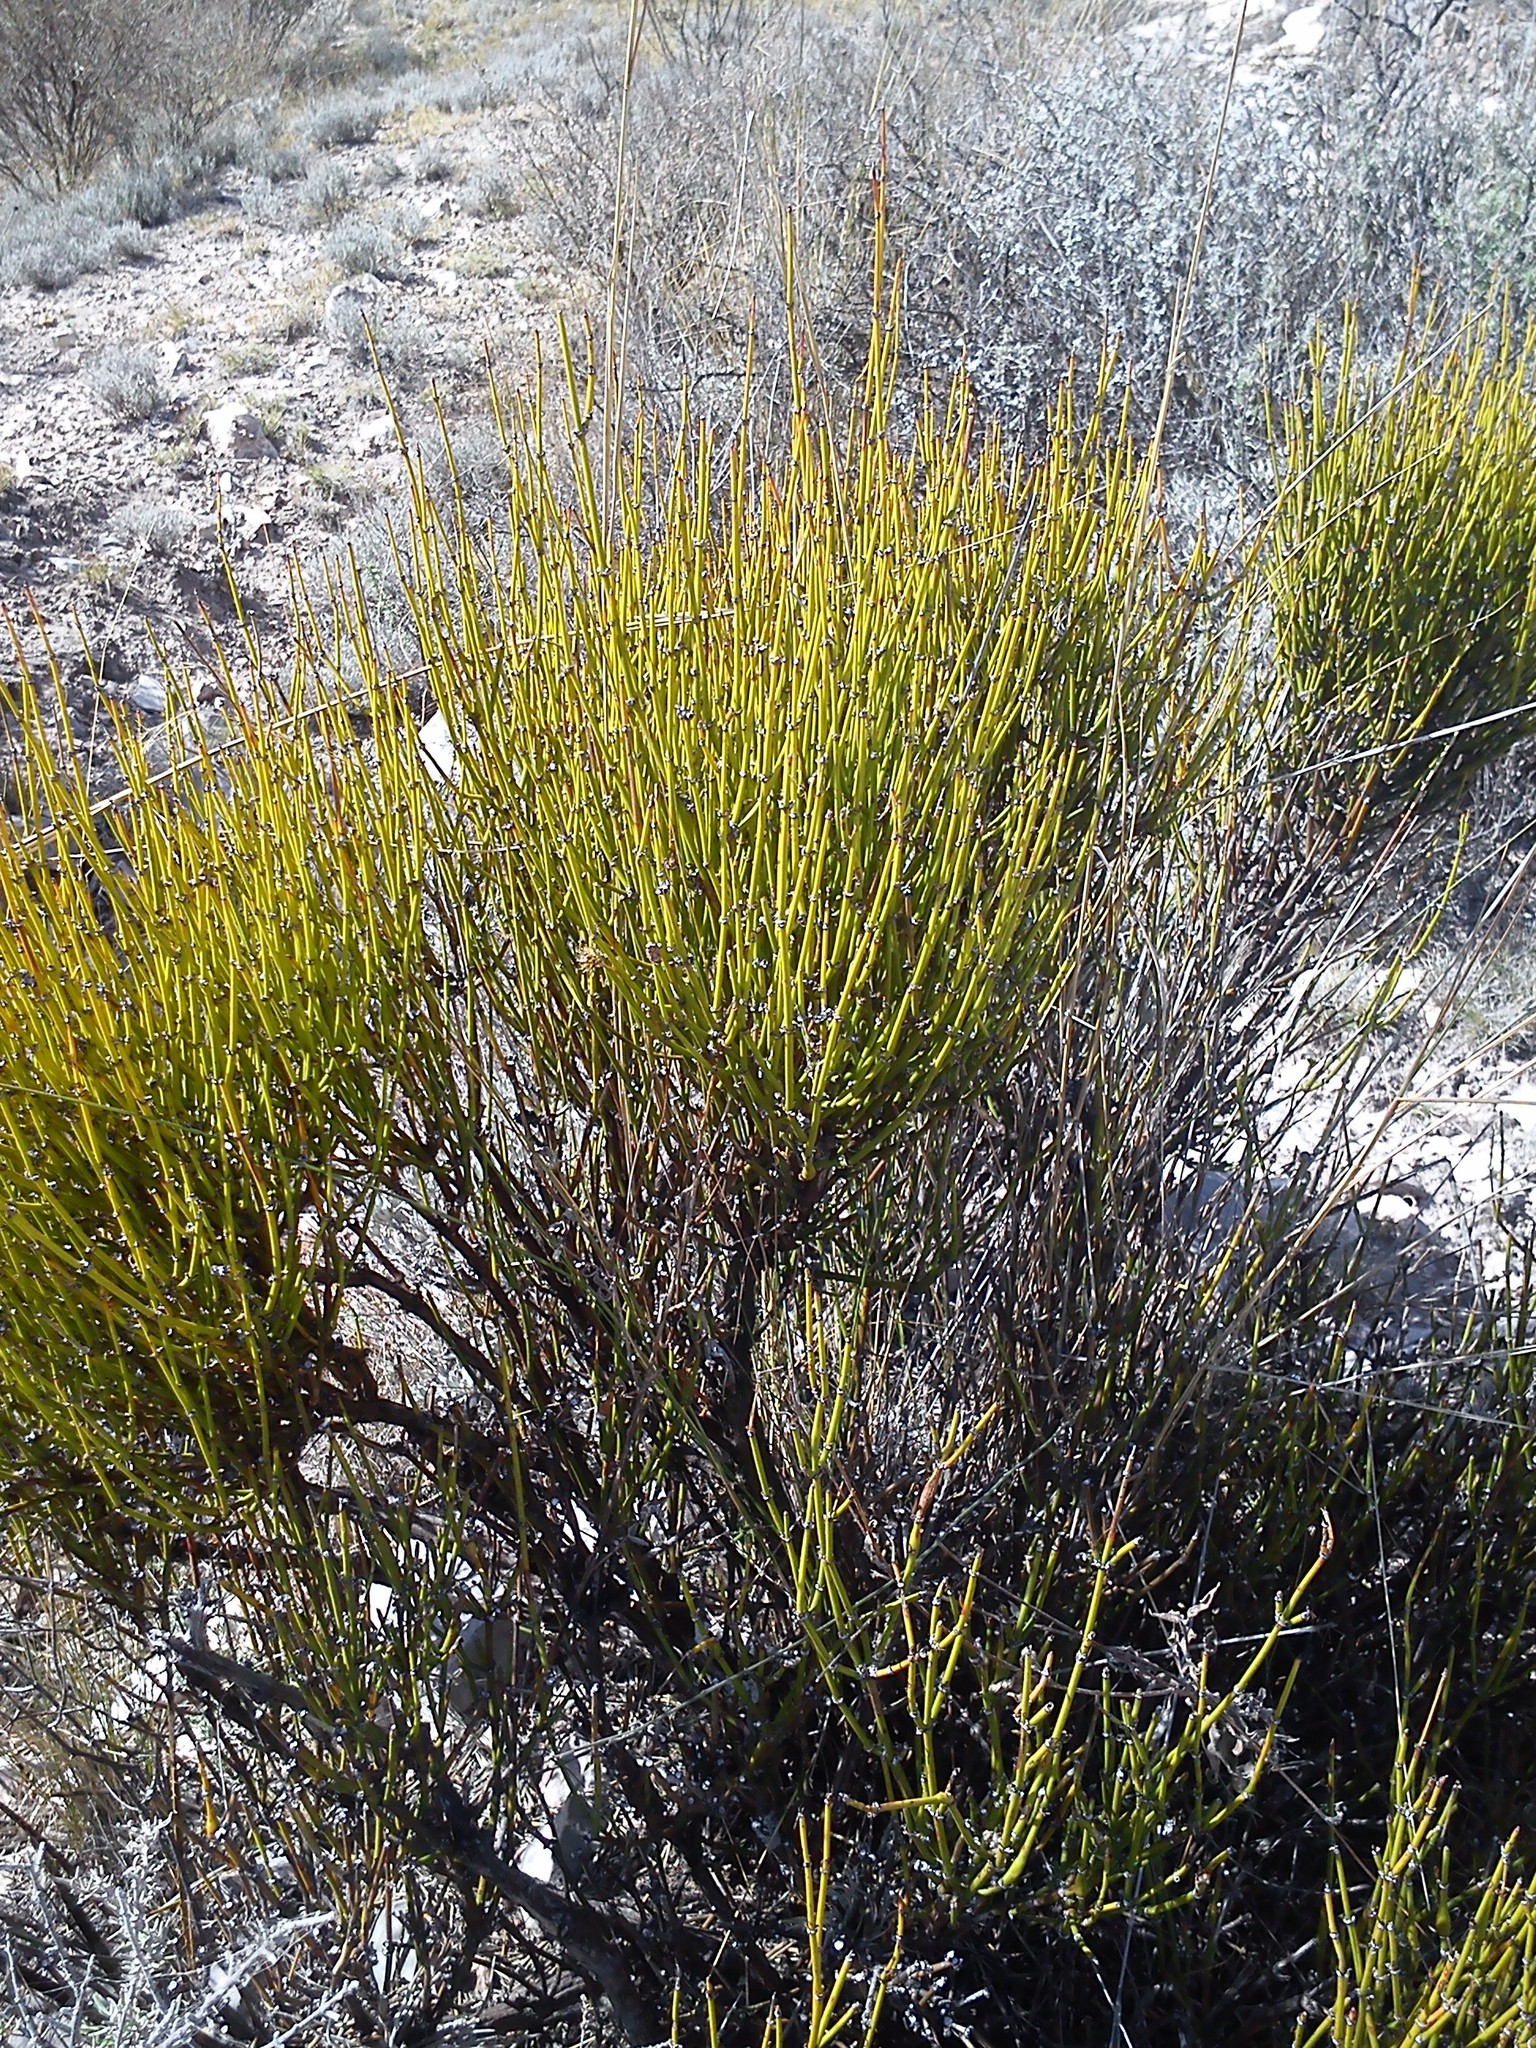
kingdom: Plantae
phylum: Tracheophyta
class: Gnetopsida
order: Ephedrales
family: Ephedraceae
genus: Ephedra
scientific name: Ephedra antisyphilitica
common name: Clipweed
